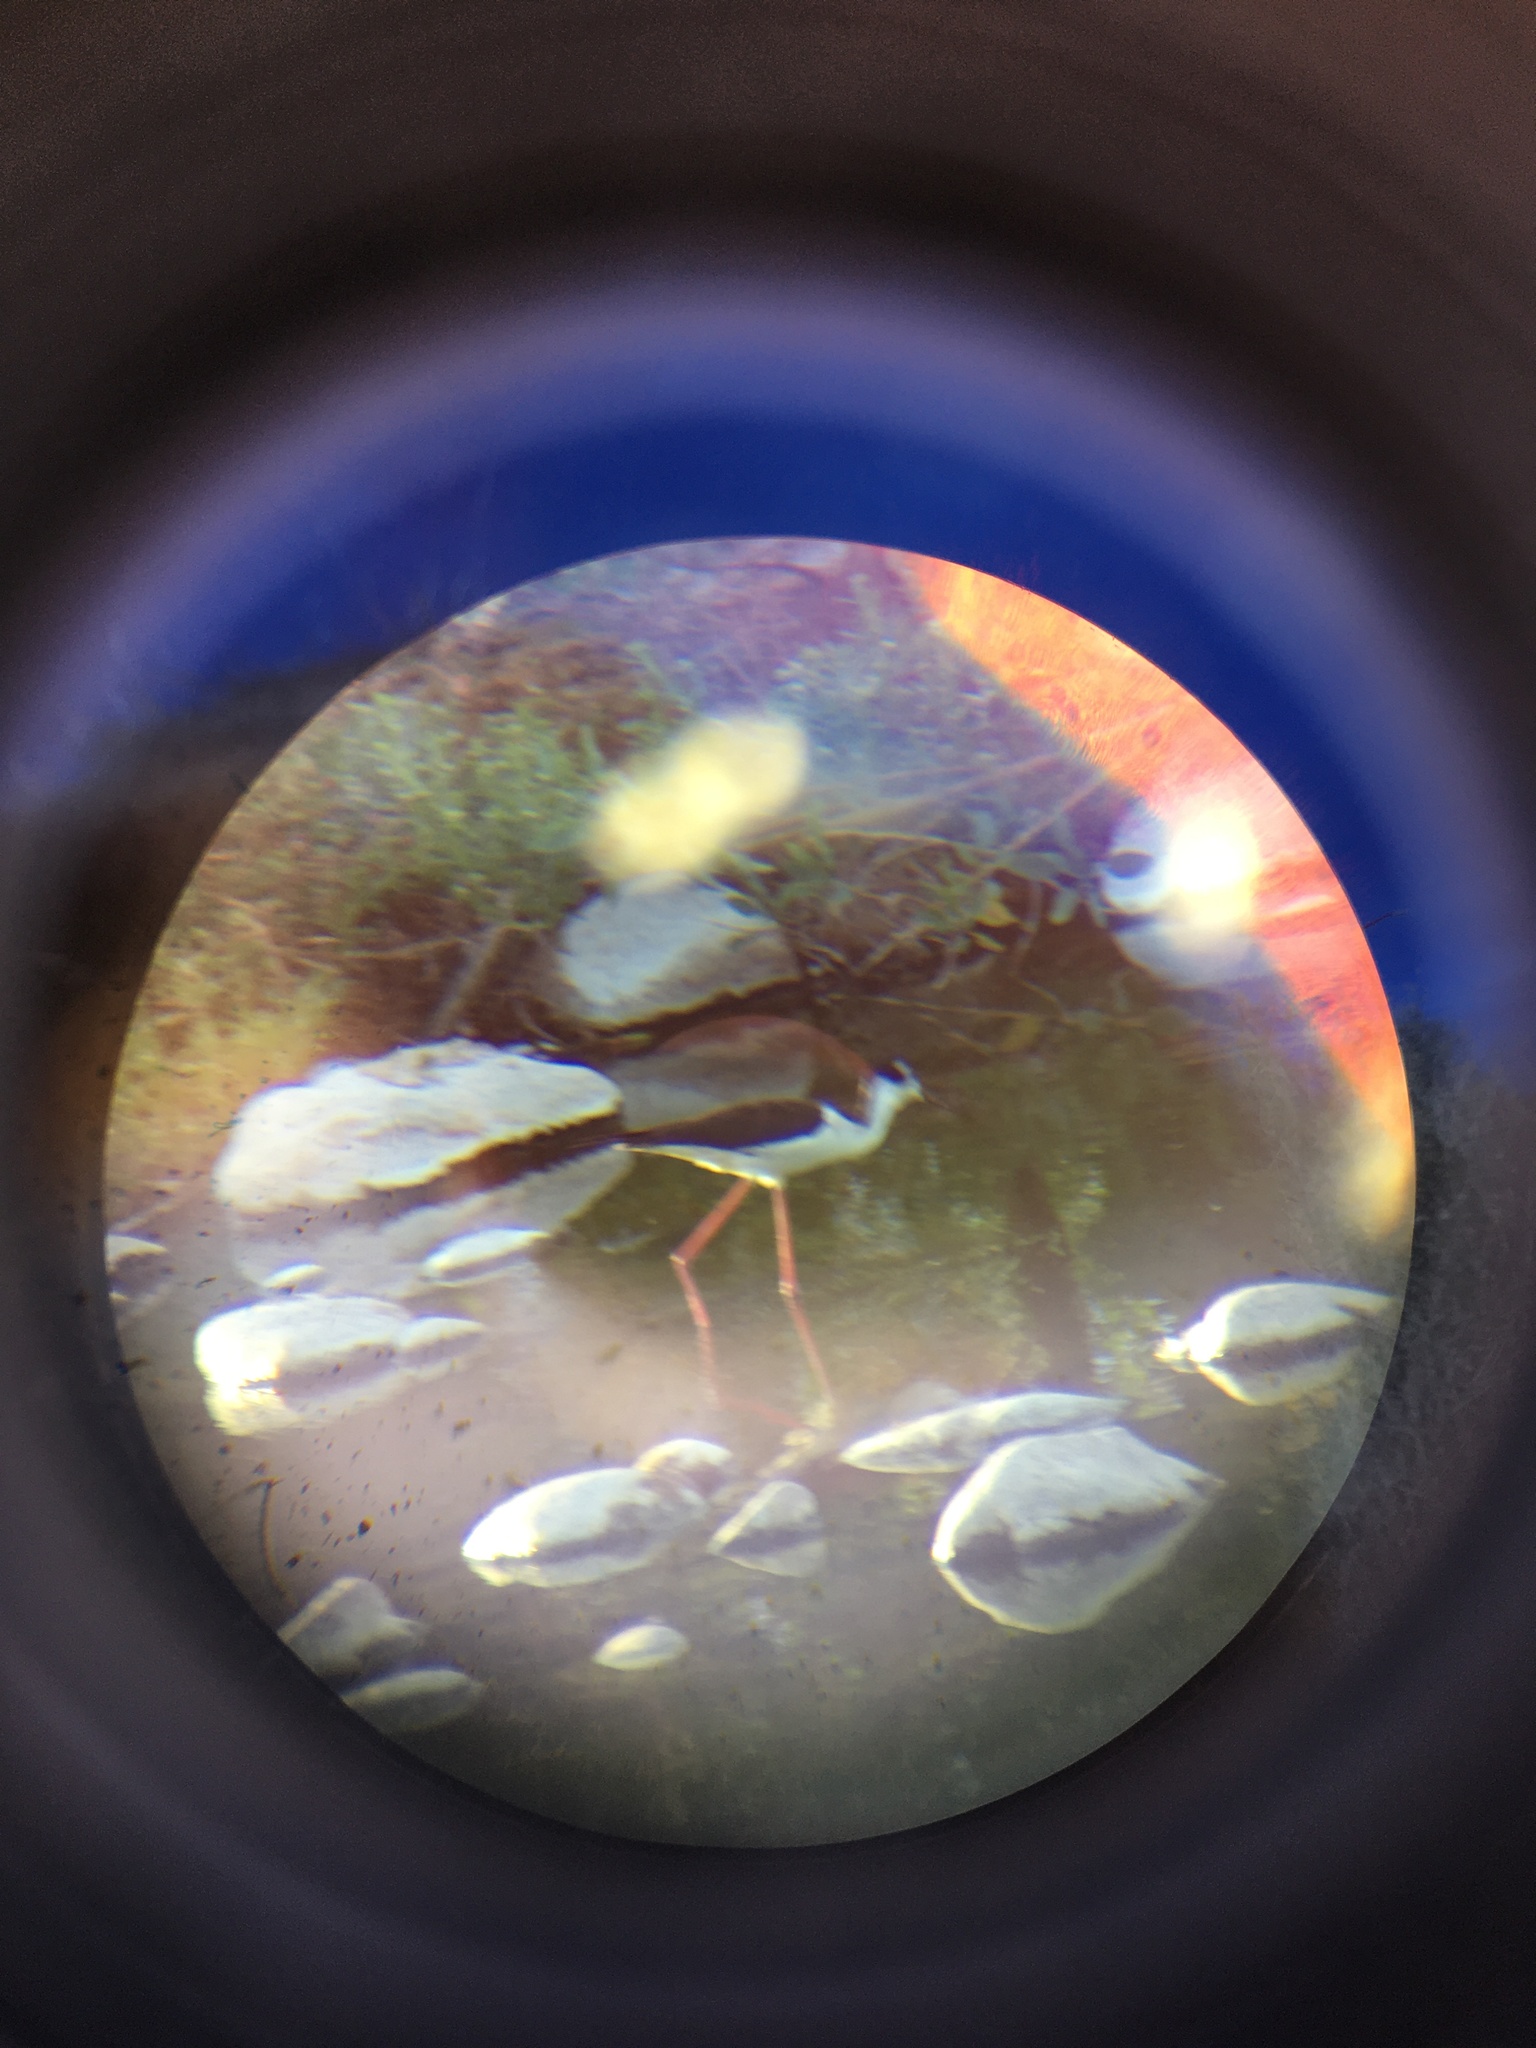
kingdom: Animalia
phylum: Chordata
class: Aves
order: Charadriiformes
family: Recurvirostridae
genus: Himantopus
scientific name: Himantopus mexicanus
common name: Black-necked stilt
